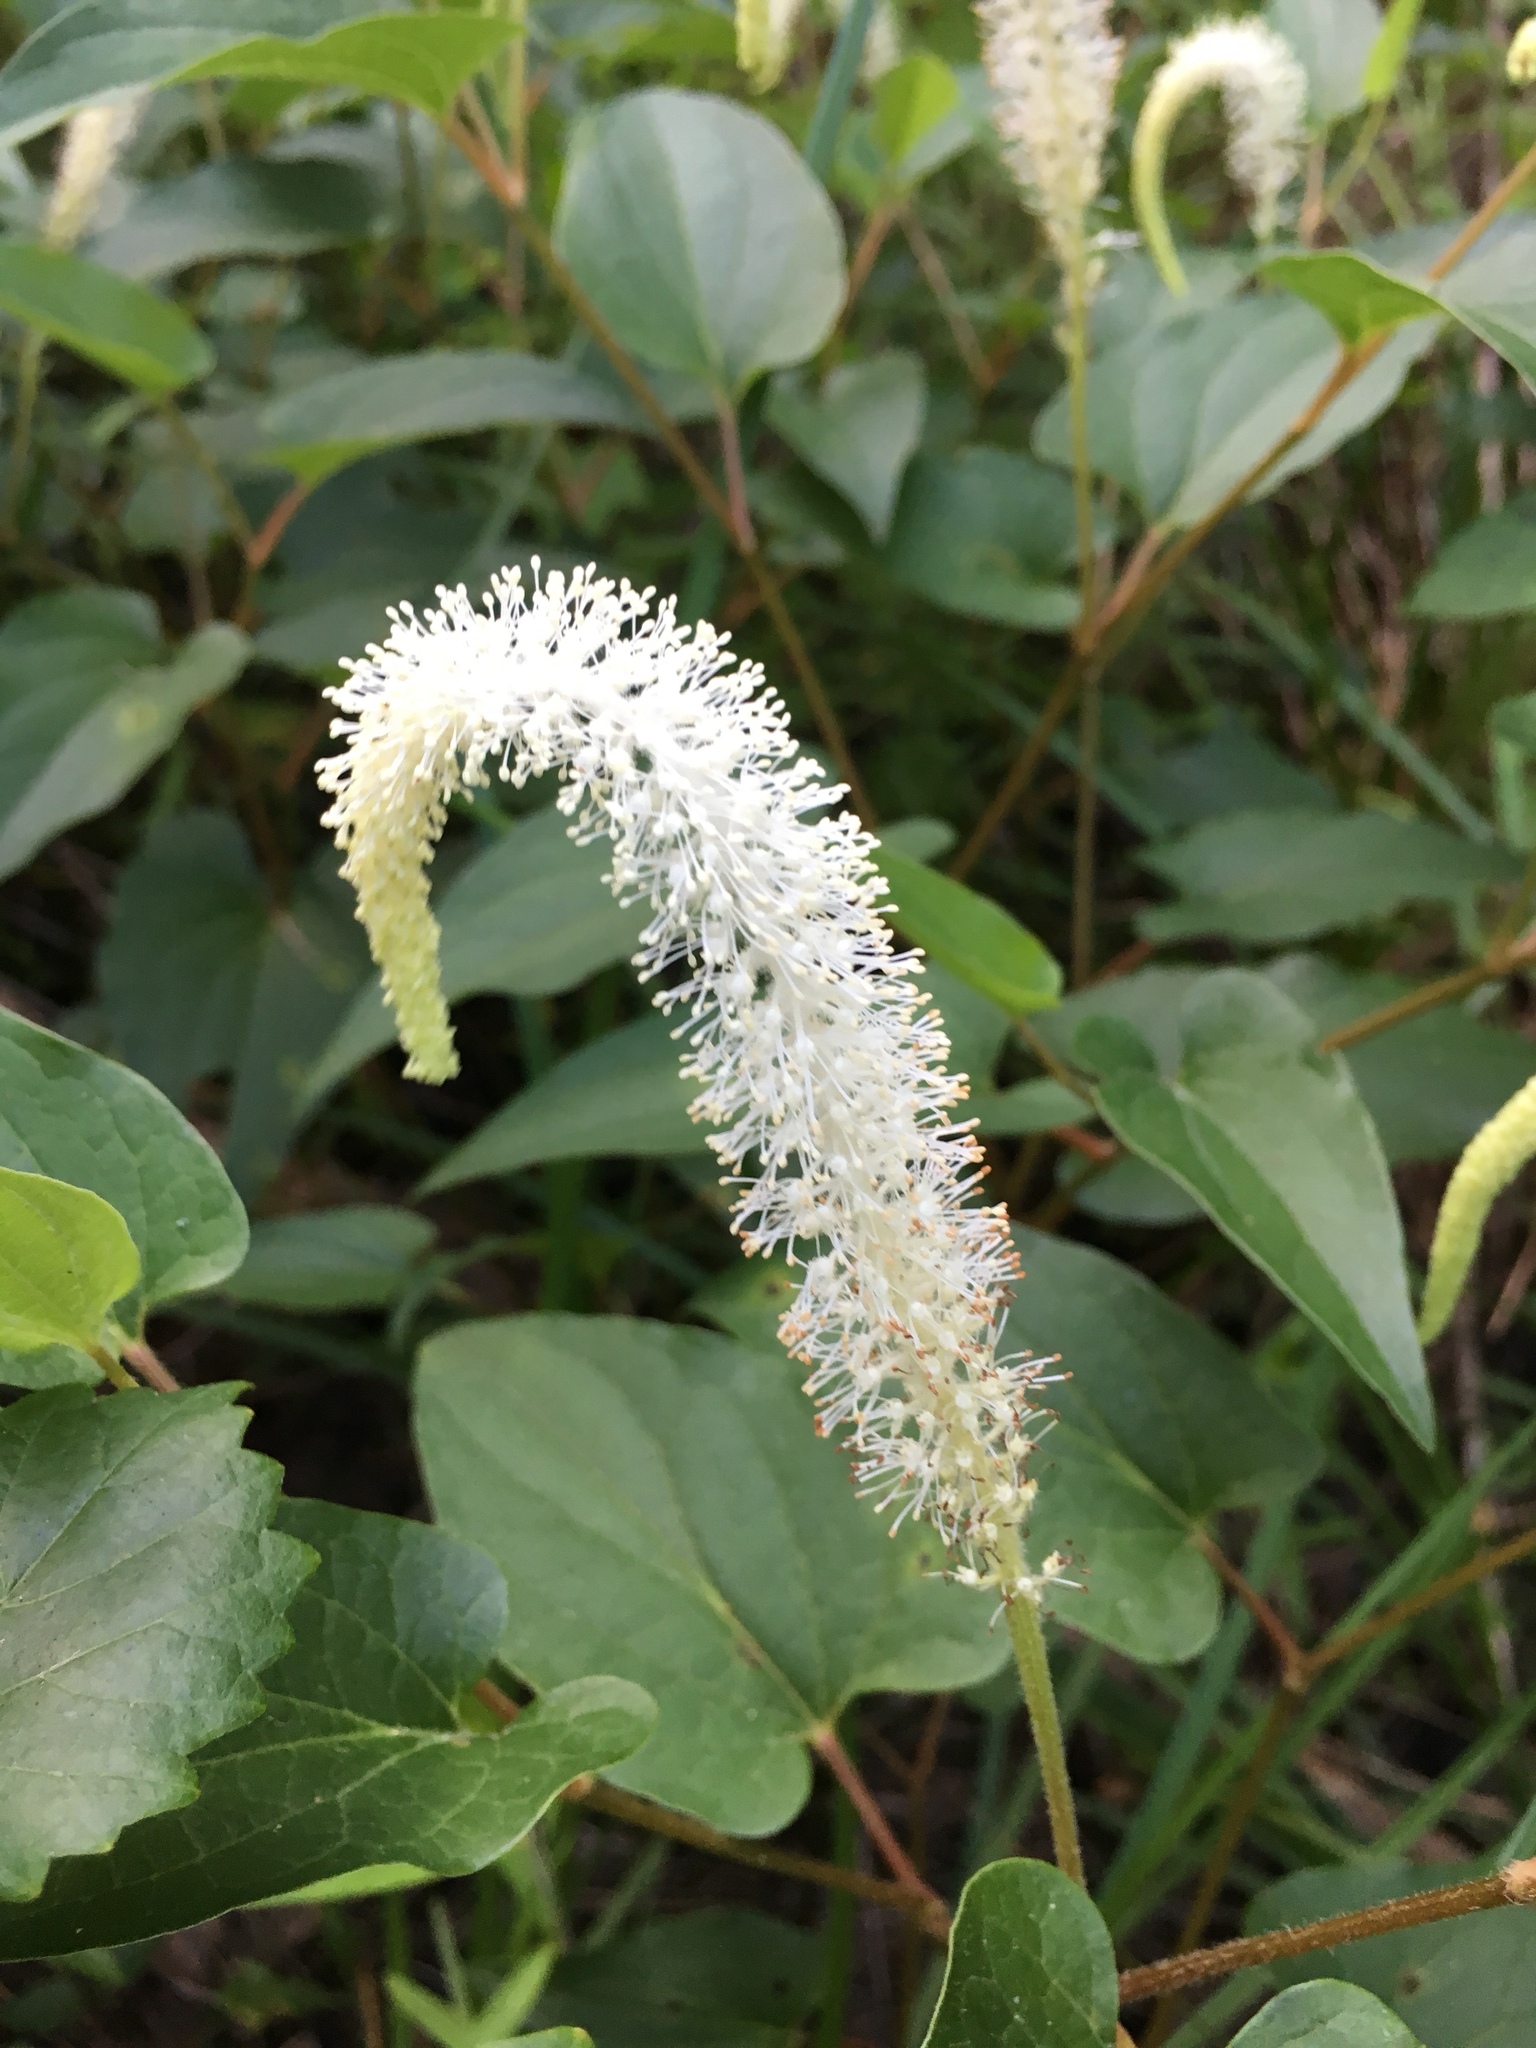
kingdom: Plantae
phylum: Tracheophyta
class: Magnoliopsida
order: Piperales
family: Saururaceae
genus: Saururus
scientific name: Saururus cernuus
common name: Lizard's-tail
